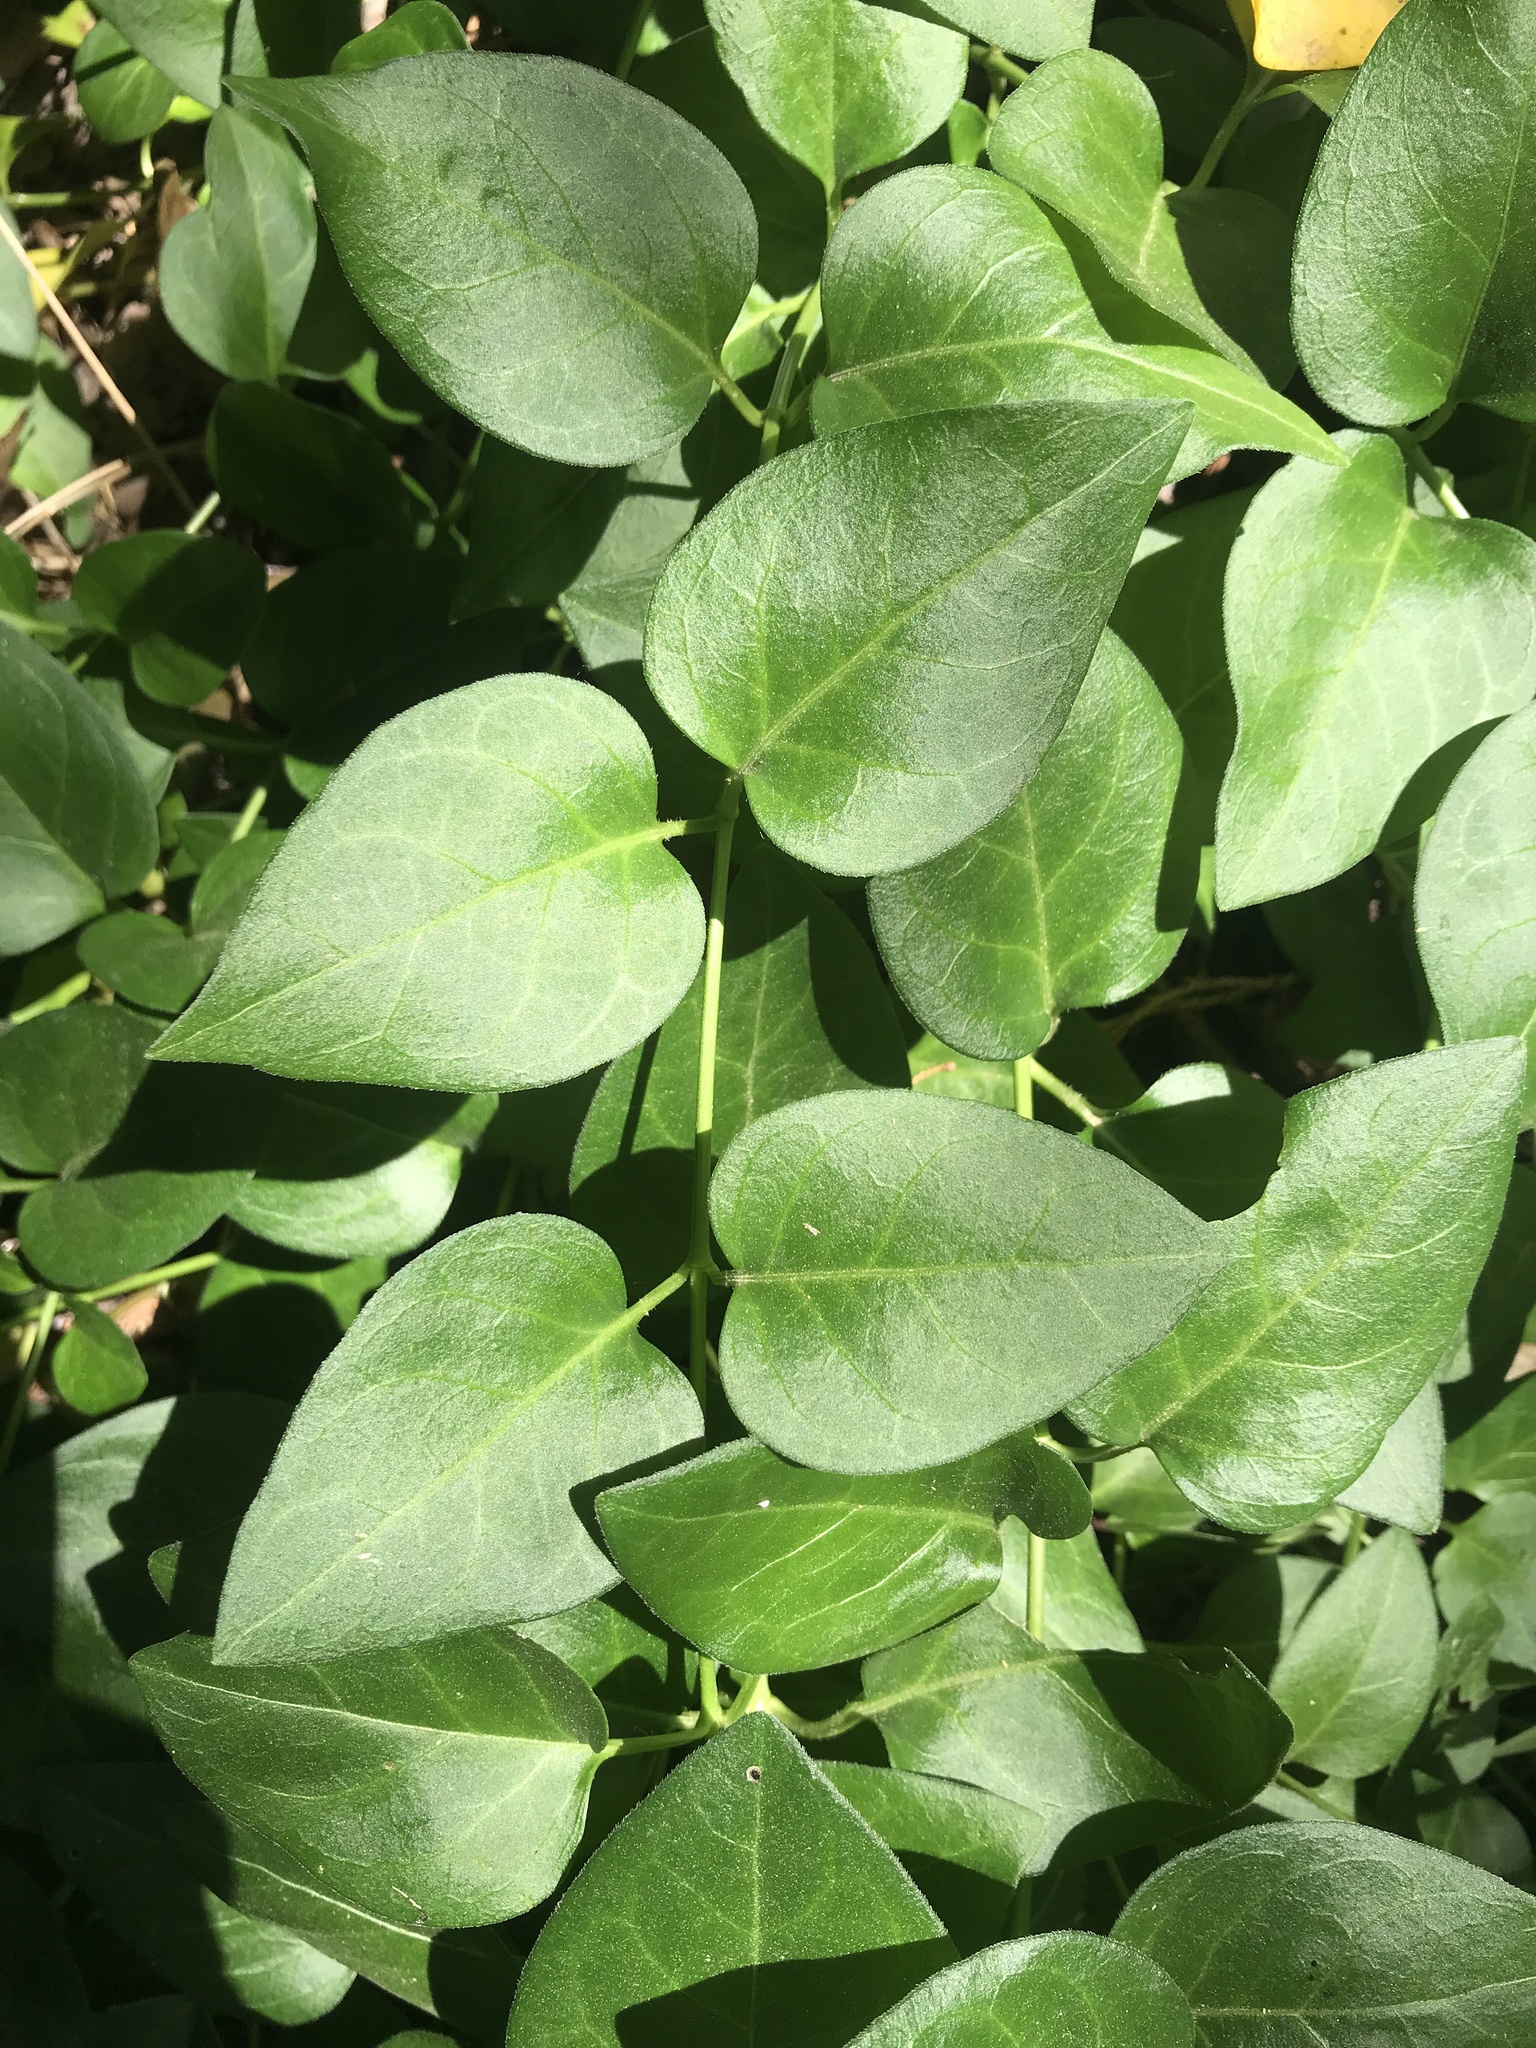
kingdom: Plantae
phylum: Tracheophyta
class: Magnoliopsida
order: Gentianales
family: Apocynaceae
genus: Vinca
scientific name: Vinca major
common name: Greater periwinkle
